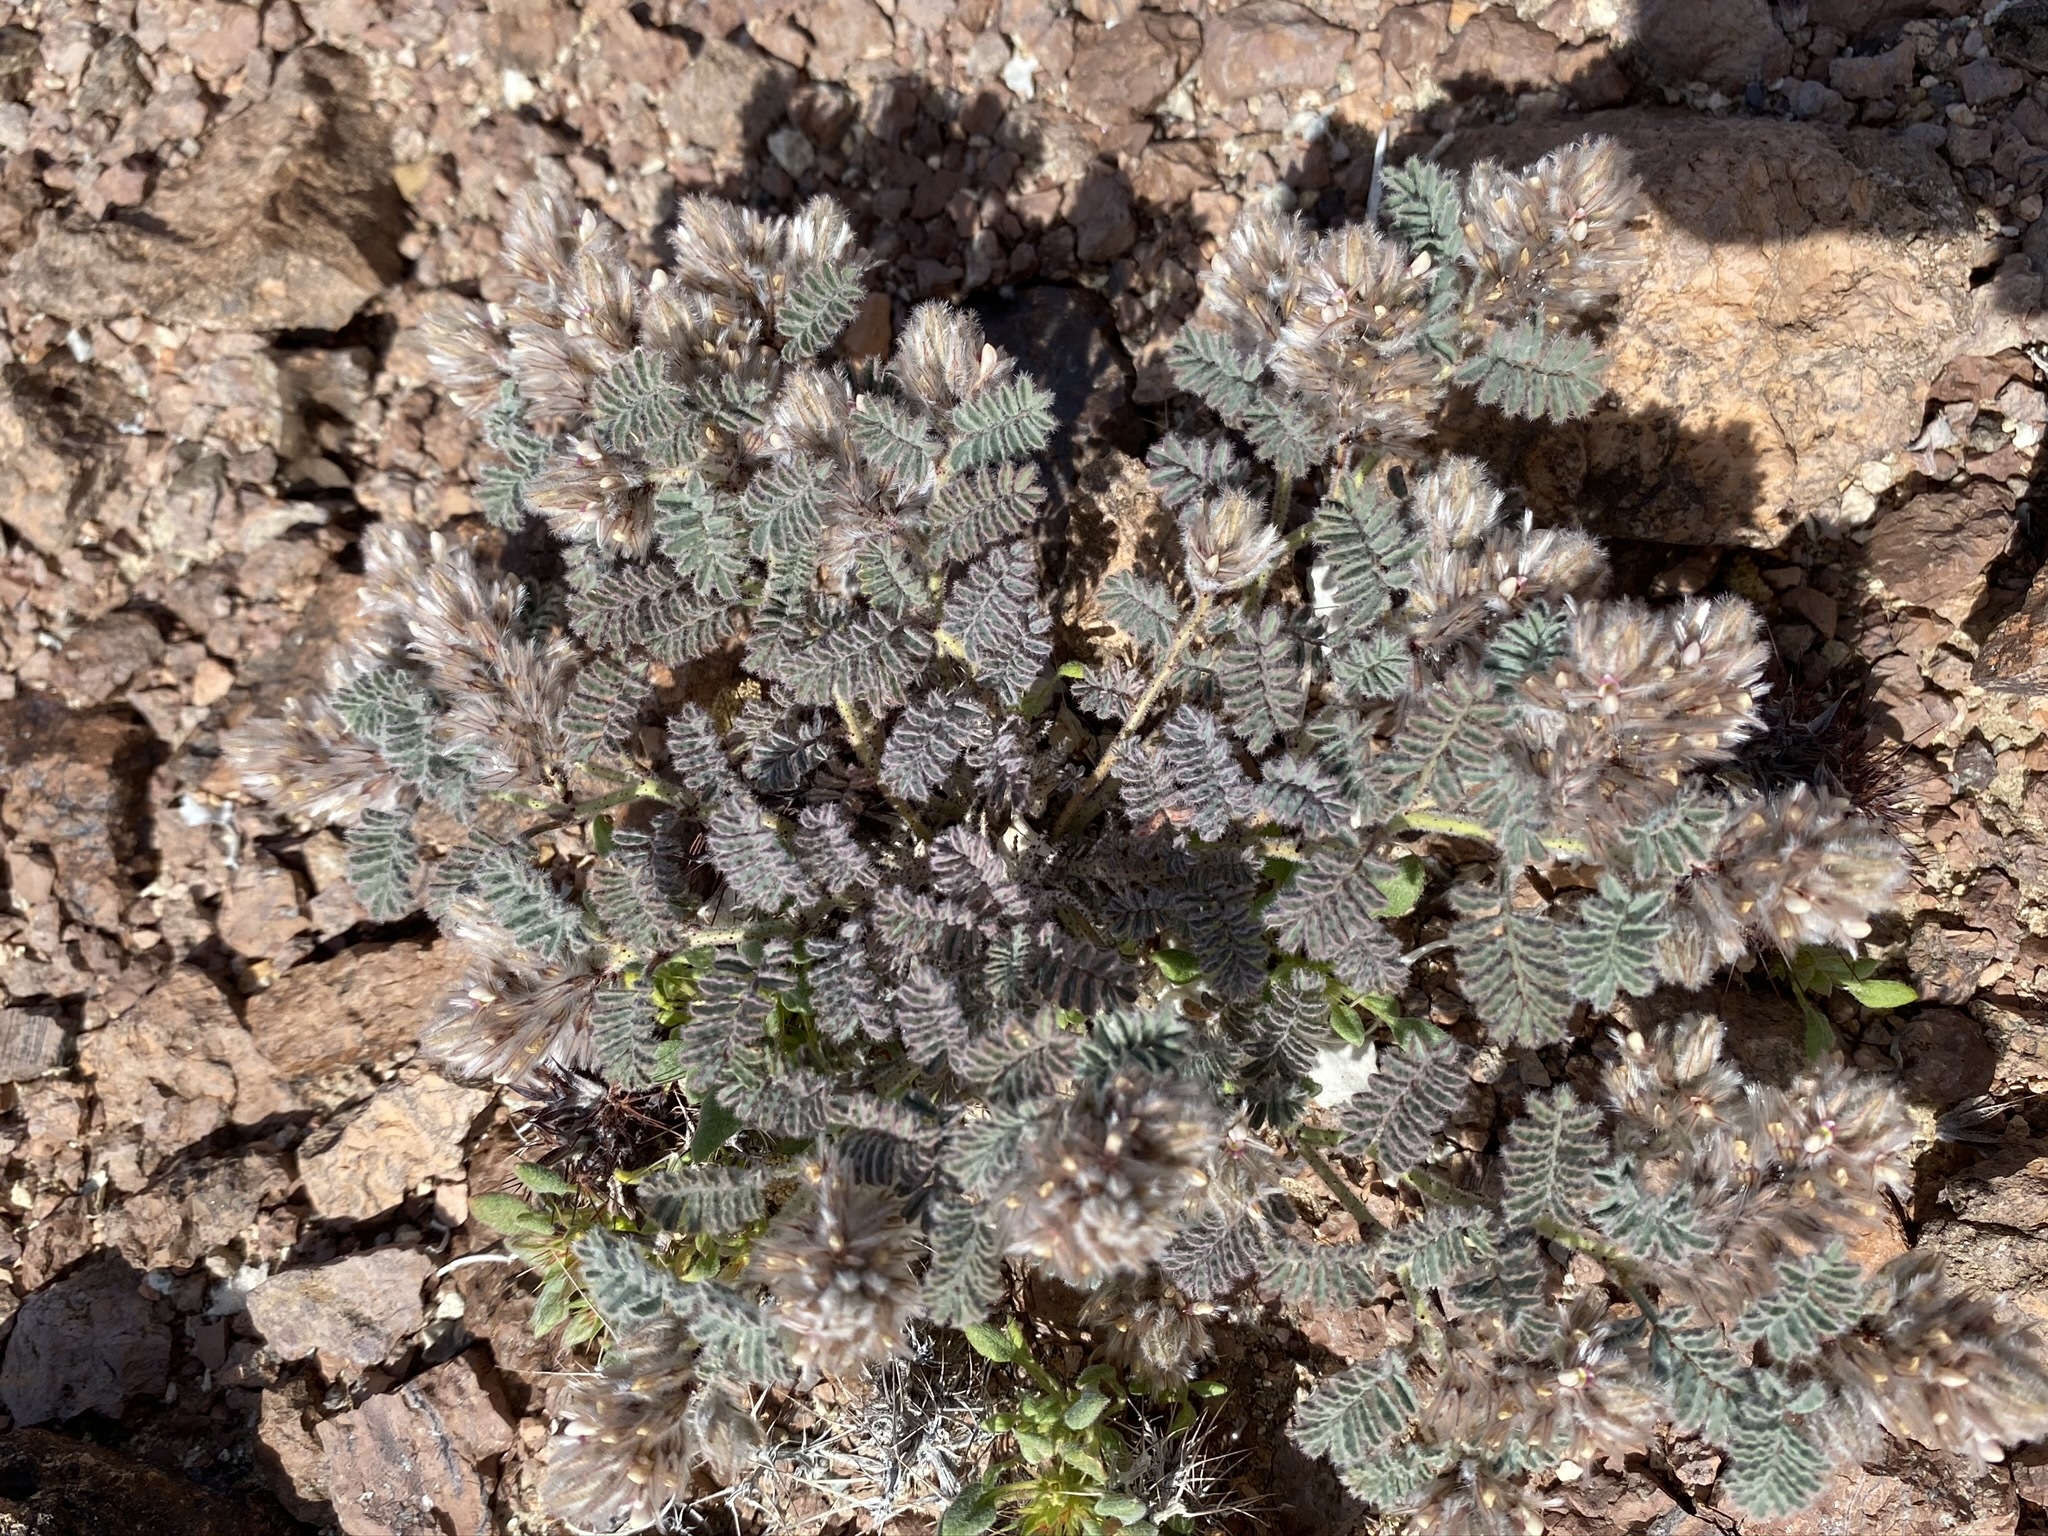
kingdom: Plantae
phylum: Tracheophyta
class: Magnoliopsida
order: Fabales
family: Fabaceae
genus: Dalea
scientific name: Dalea mollissima
